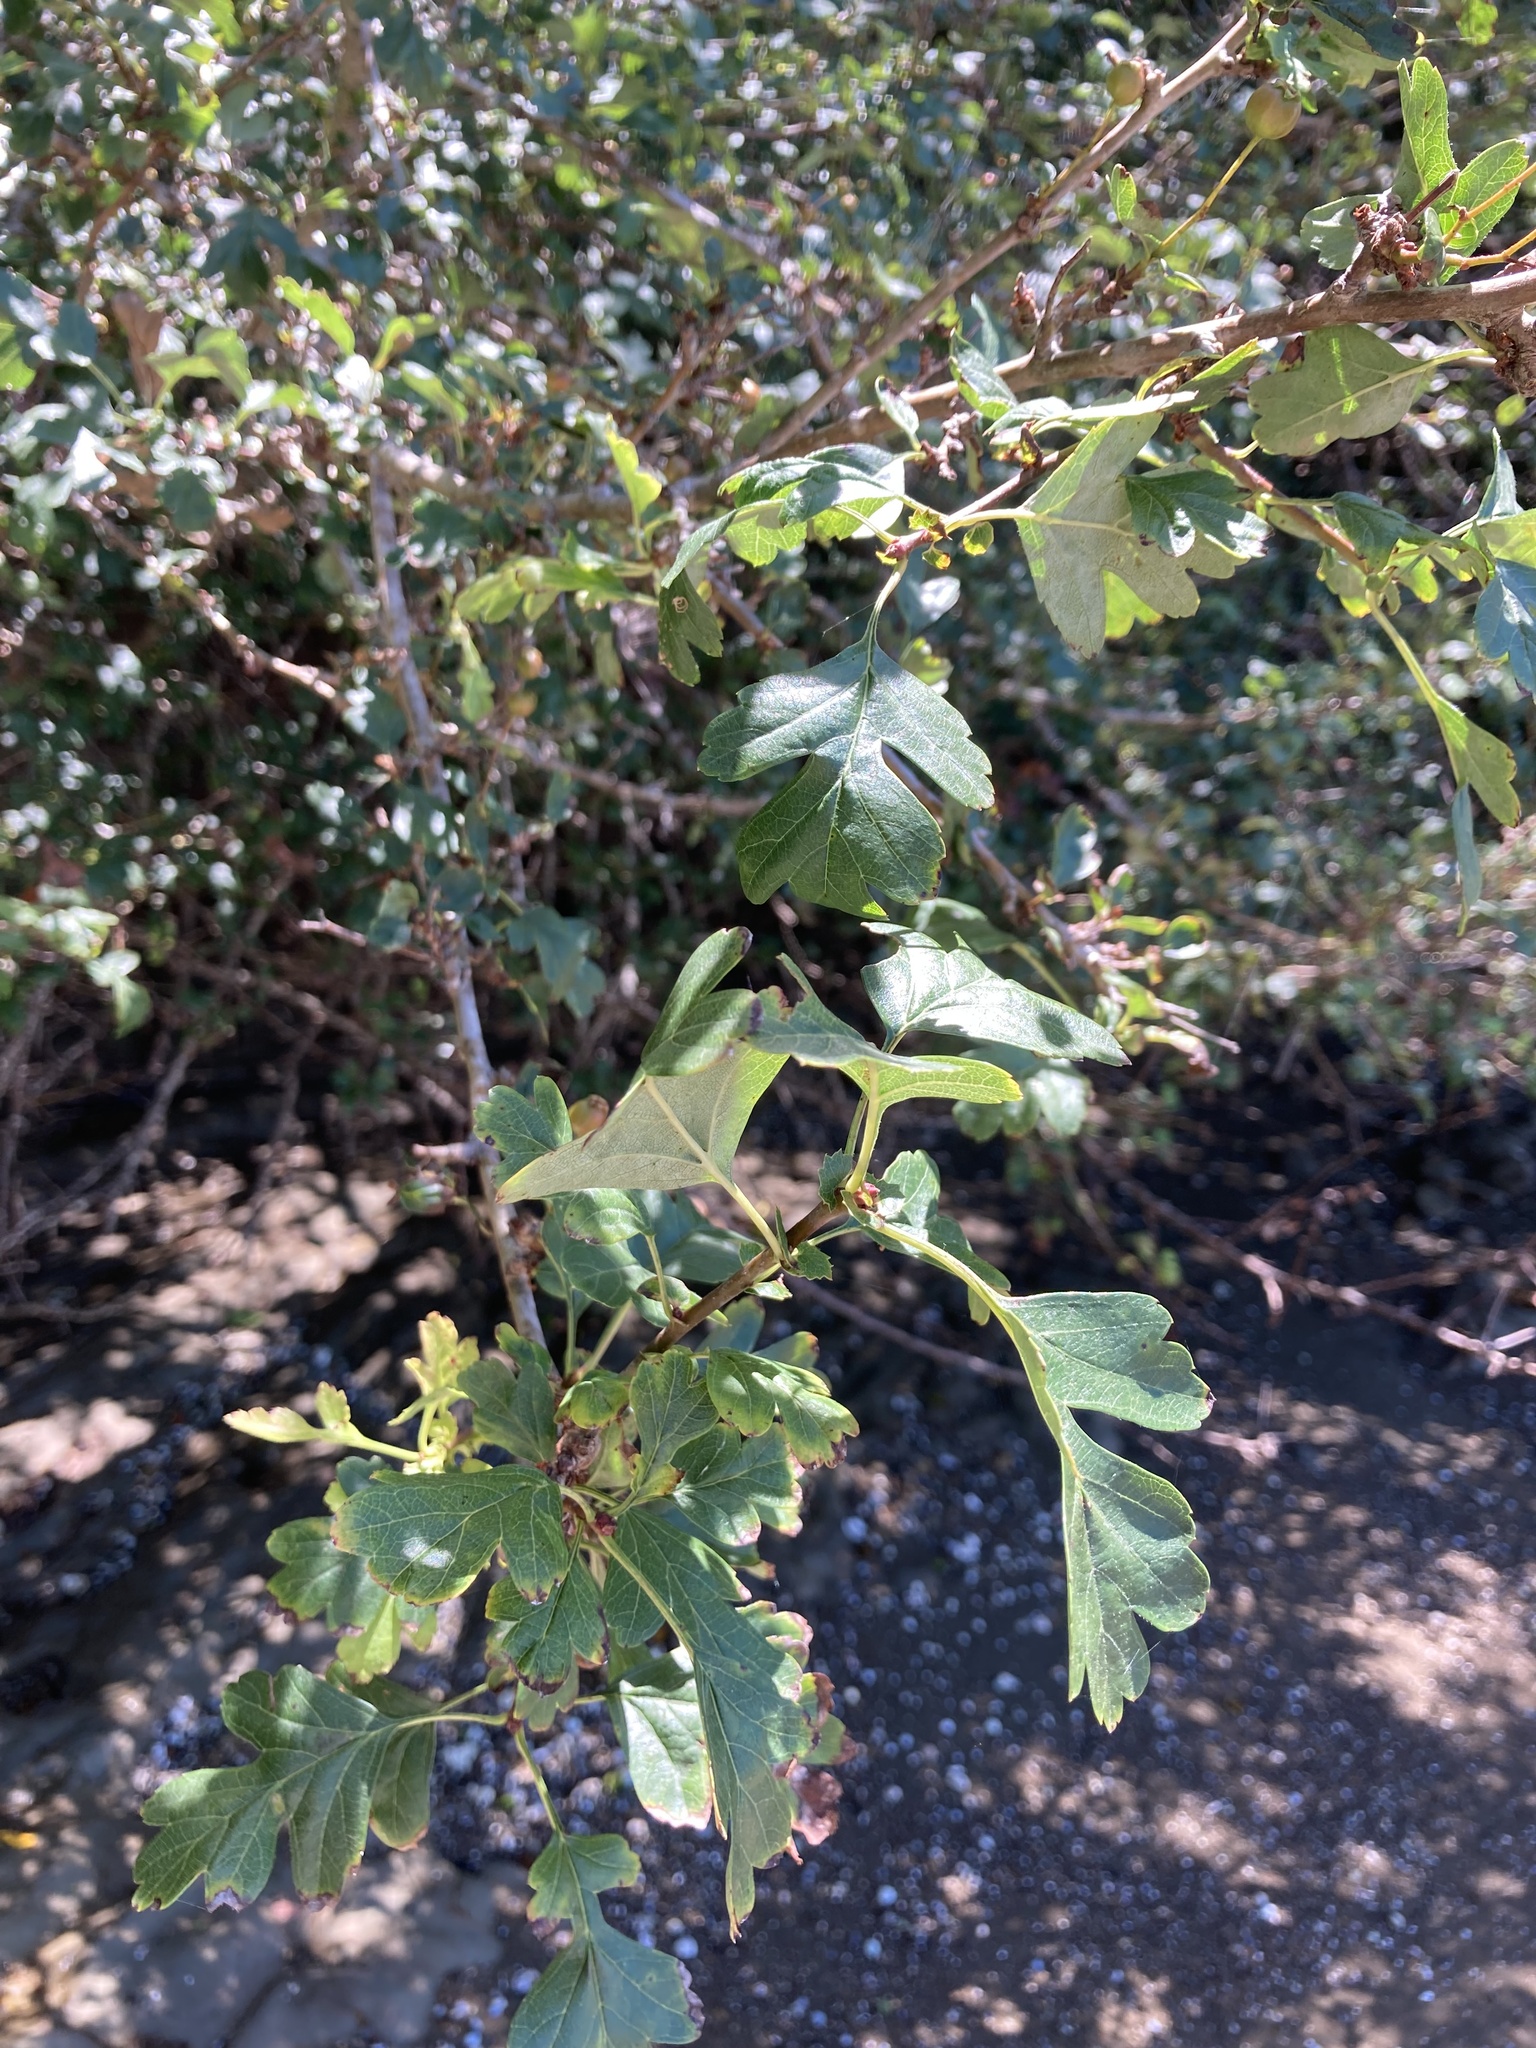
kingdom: Plantae
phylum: Tracheophyta
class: Magnoliopsida
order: Rosales
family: Rosaceae
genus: Crataegus
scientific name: Crataegus monogyna
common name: Hawthorn
